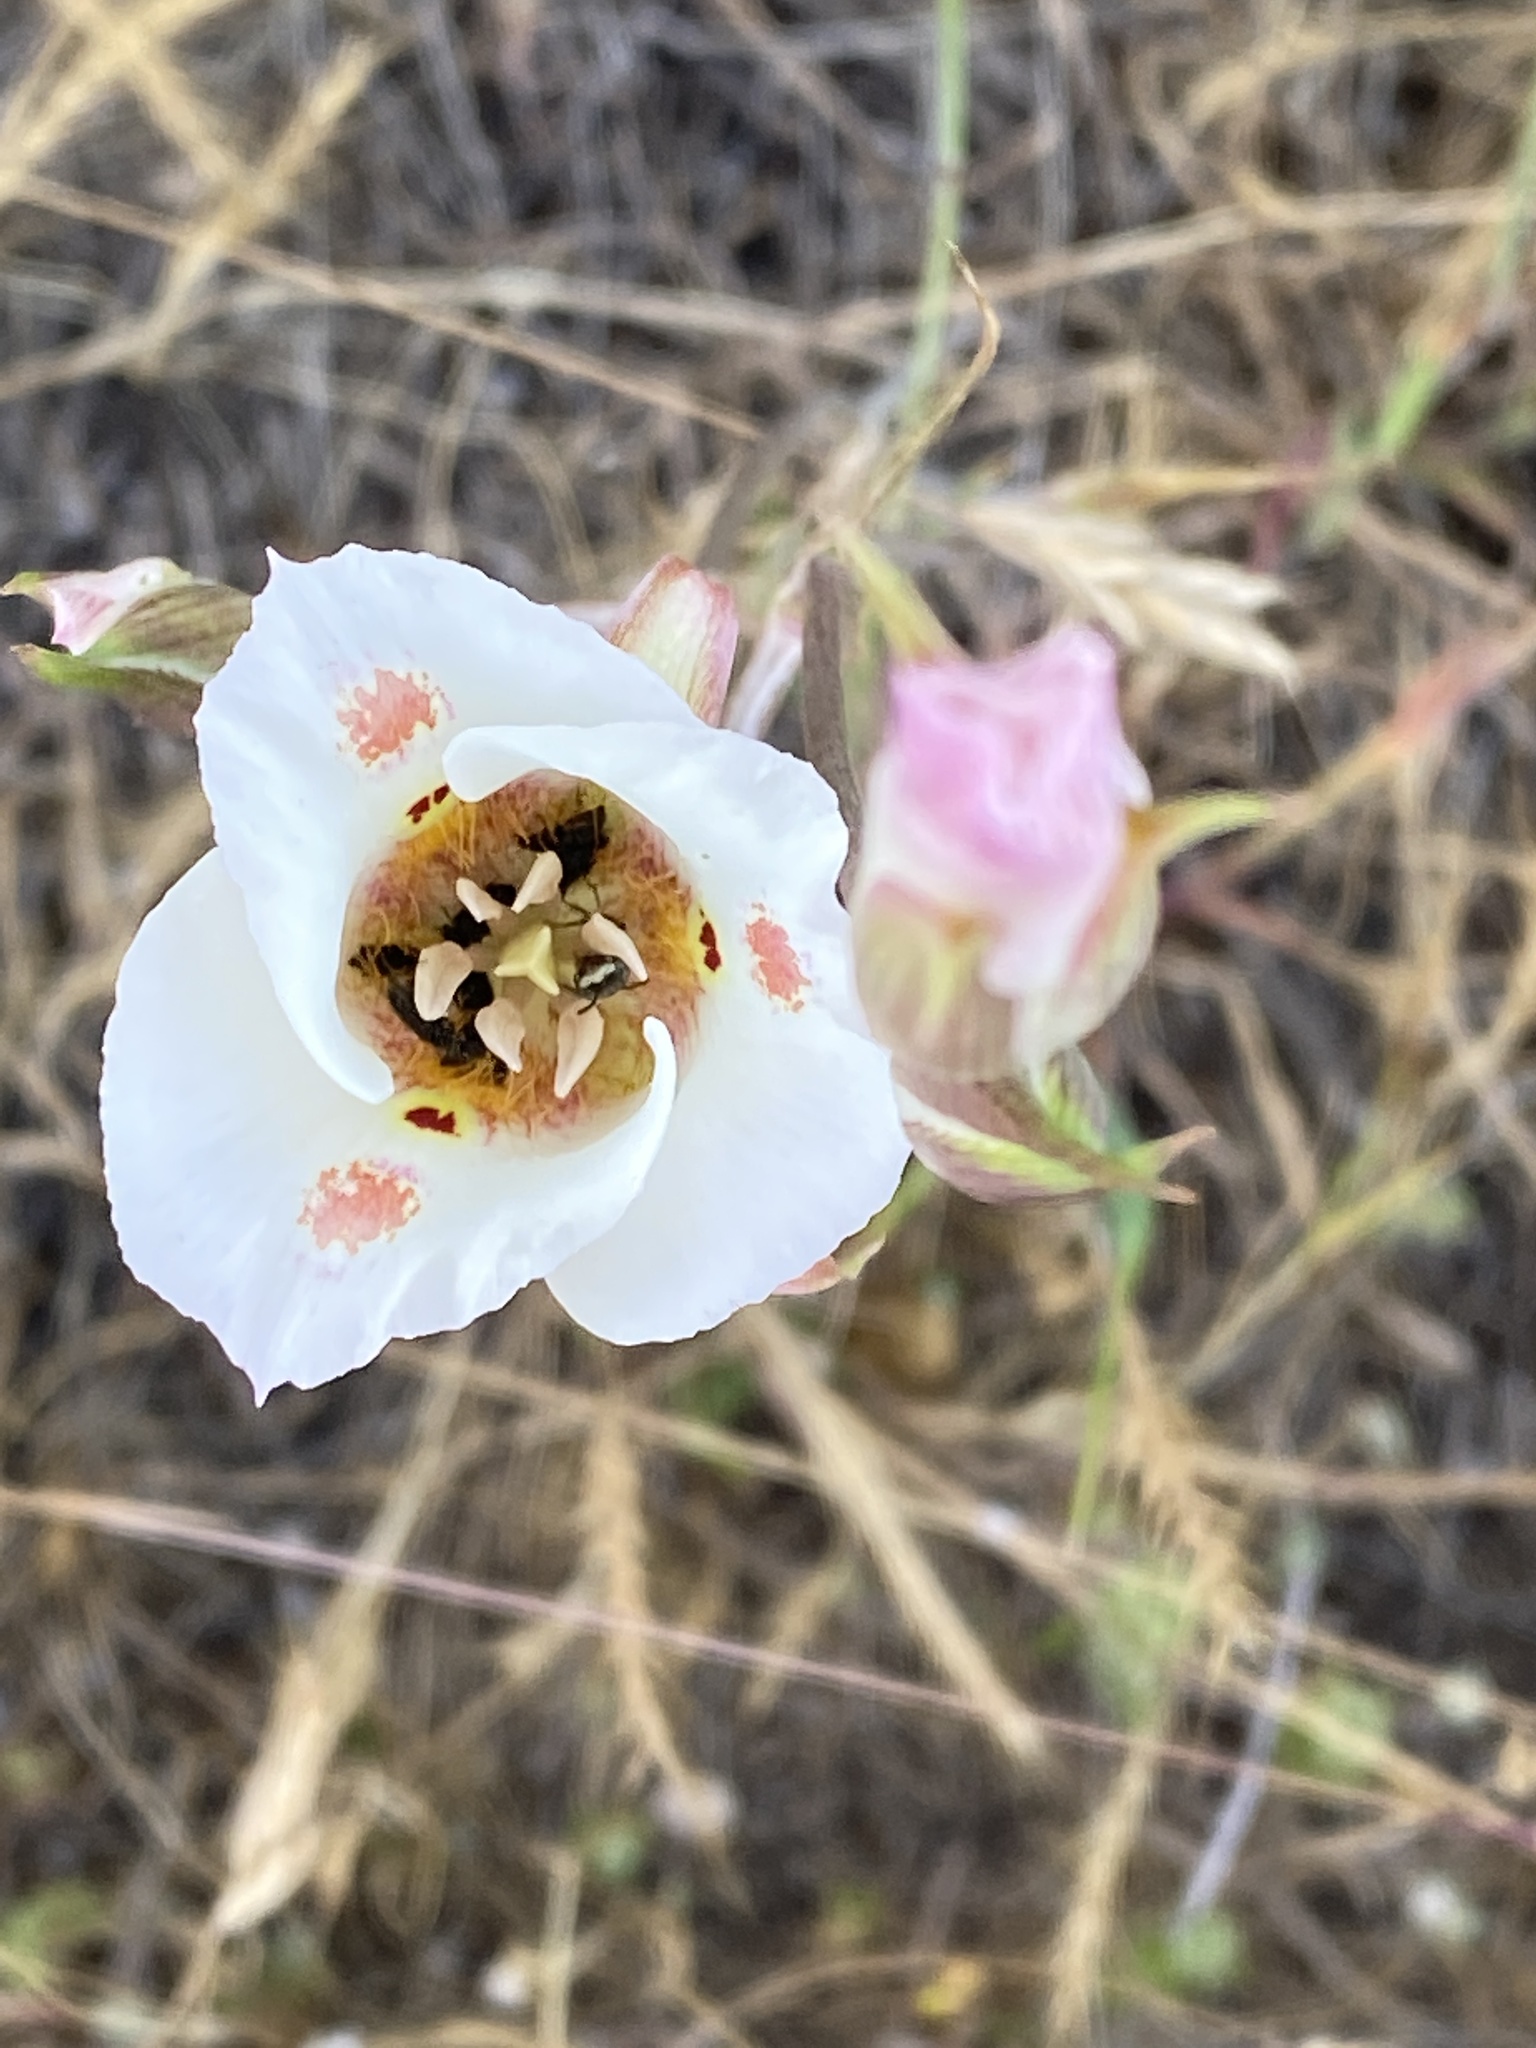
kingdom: Plantae
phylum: Tracheophyta
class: Liliopsida
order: Liliales
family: Liliaceae
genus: Calochortus
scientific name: Calochortus venustus
